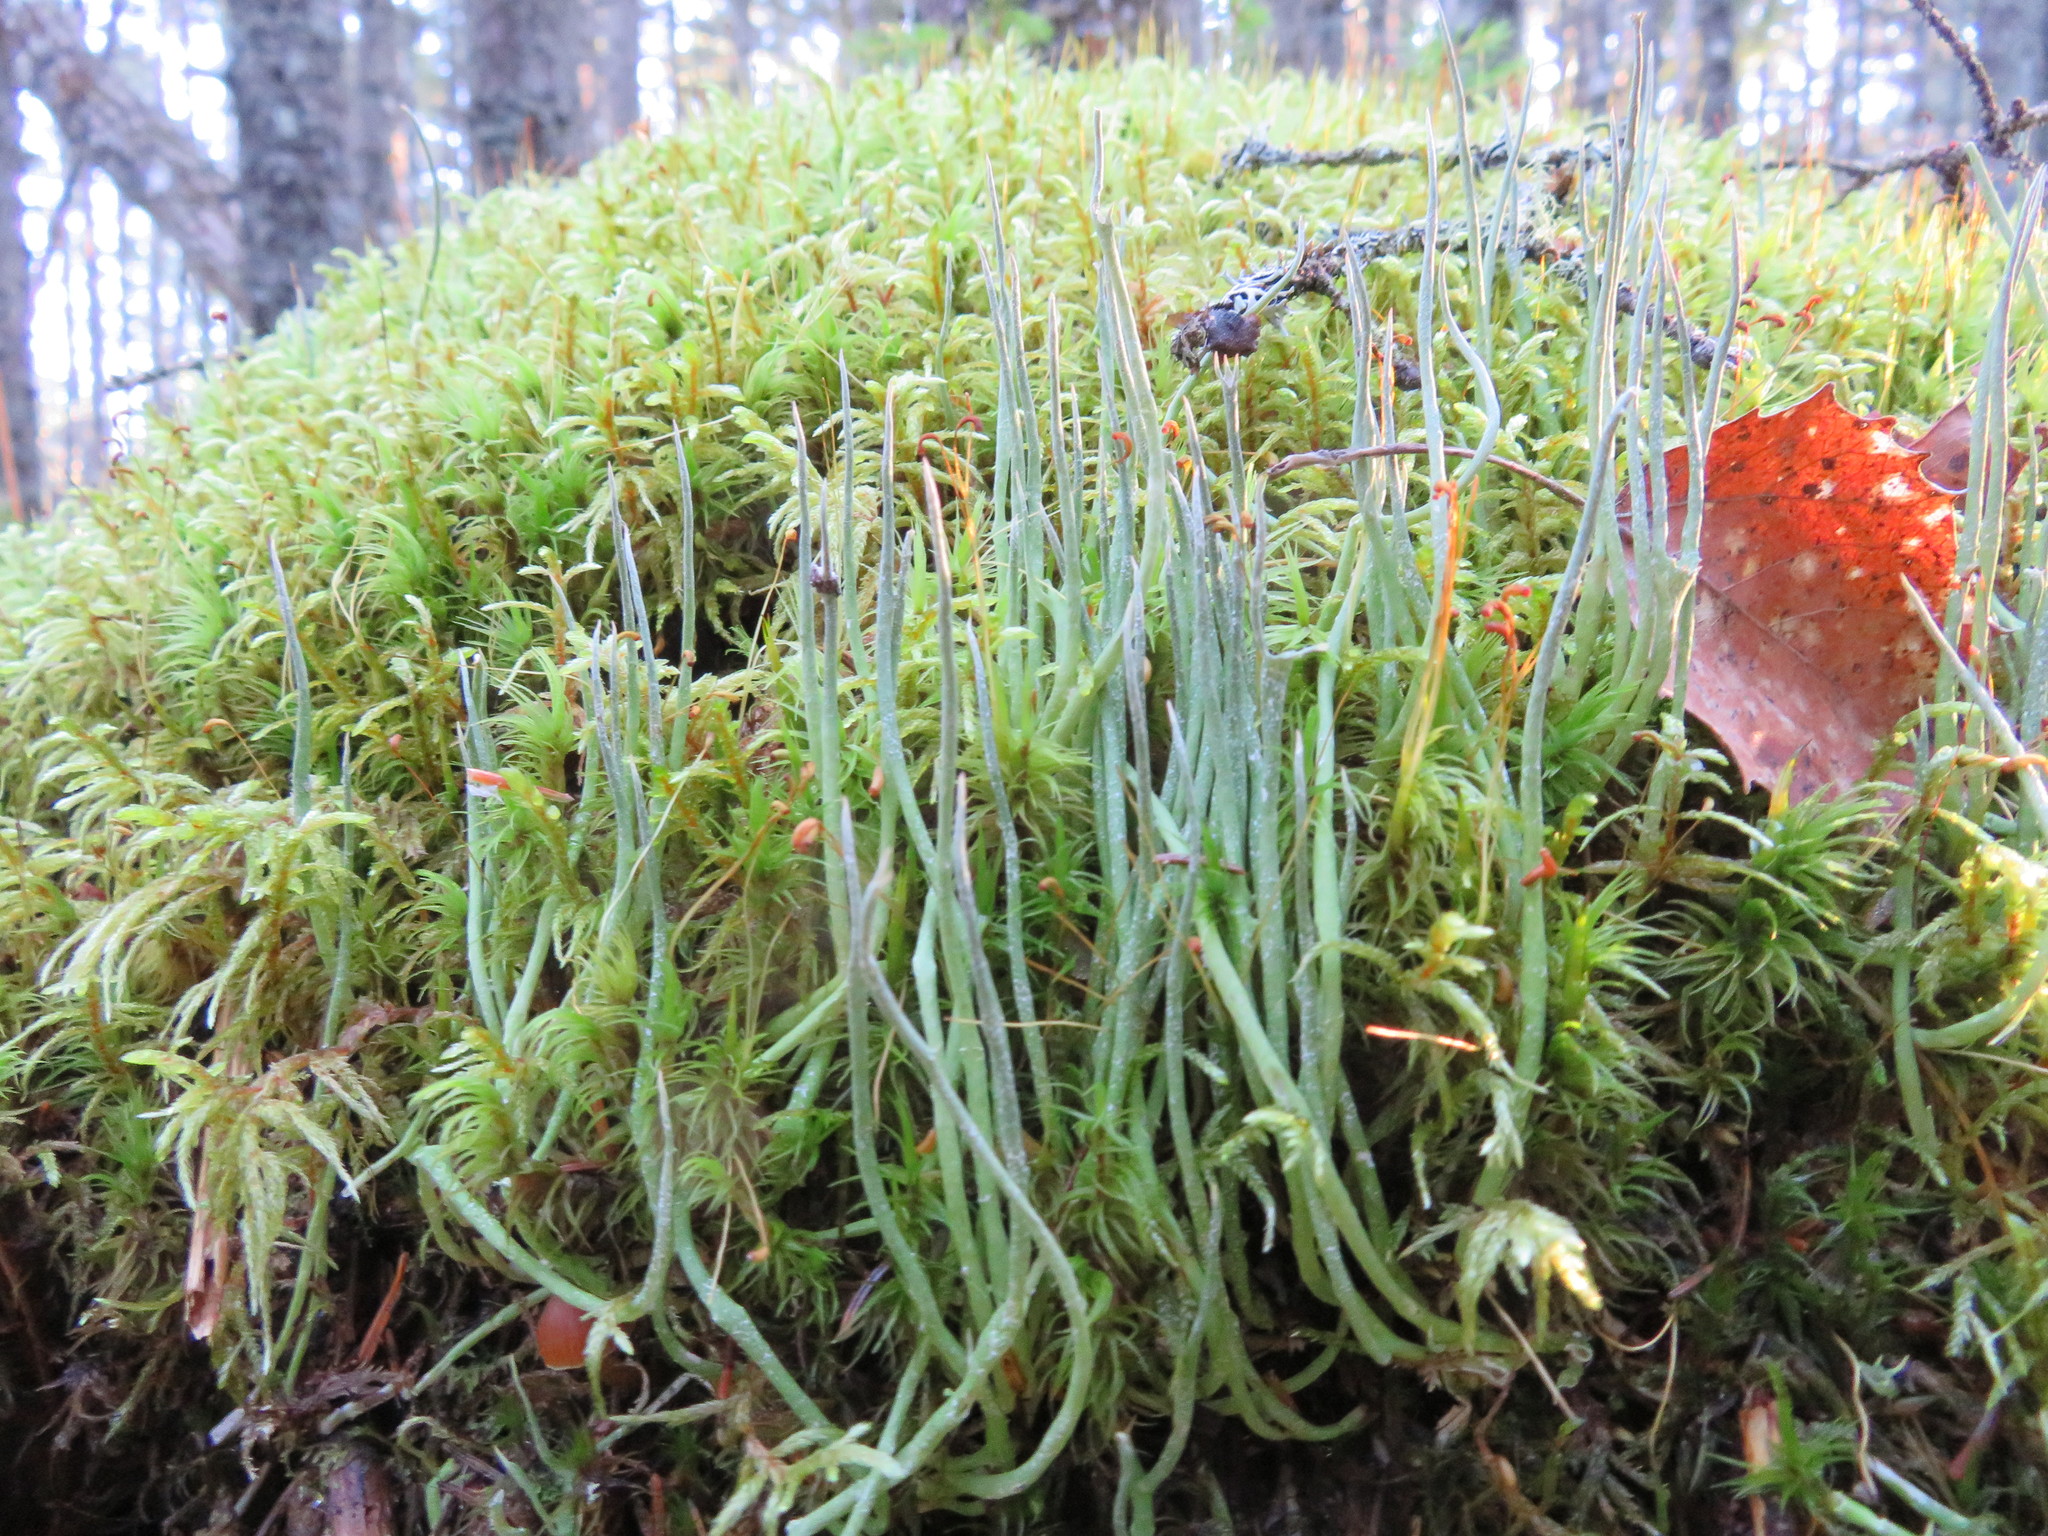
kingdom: Fungi
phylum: Ascomycota
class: Lecanoromycetes
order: Lecanorales
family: Cladoniaceae
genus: Cladonia
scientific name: Cladonia maxima
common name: Giant cladonia lichen
